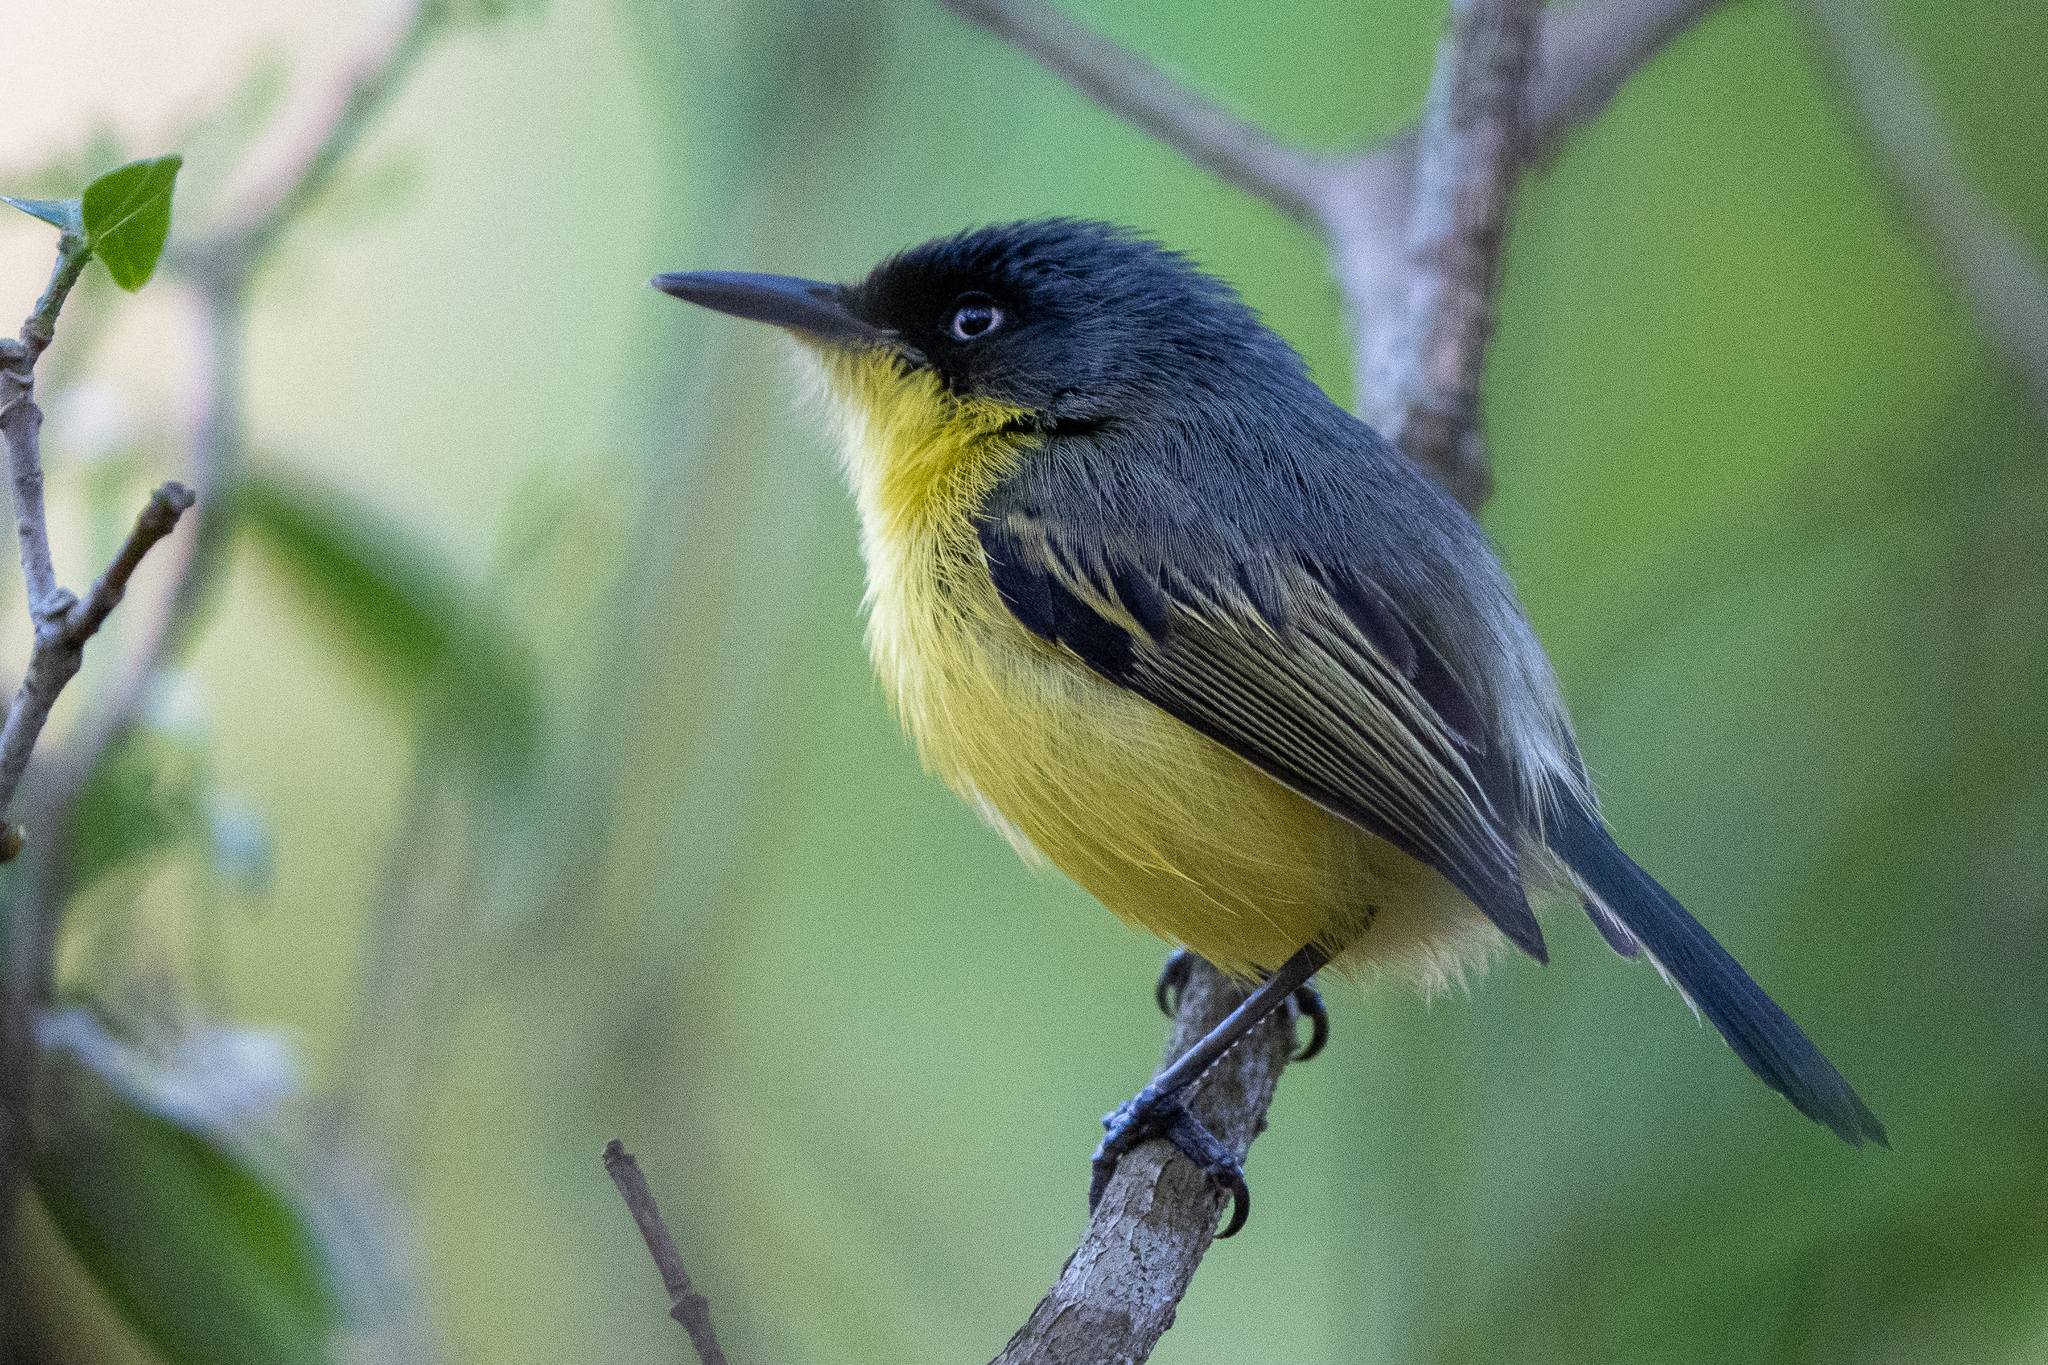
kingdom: Animalia
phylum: Chordata
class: Aves
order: Passeriformes
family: Tyrannidae
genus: Todirostrum
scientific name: Todirostrum cinereum
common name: Common tody-flycatcher
